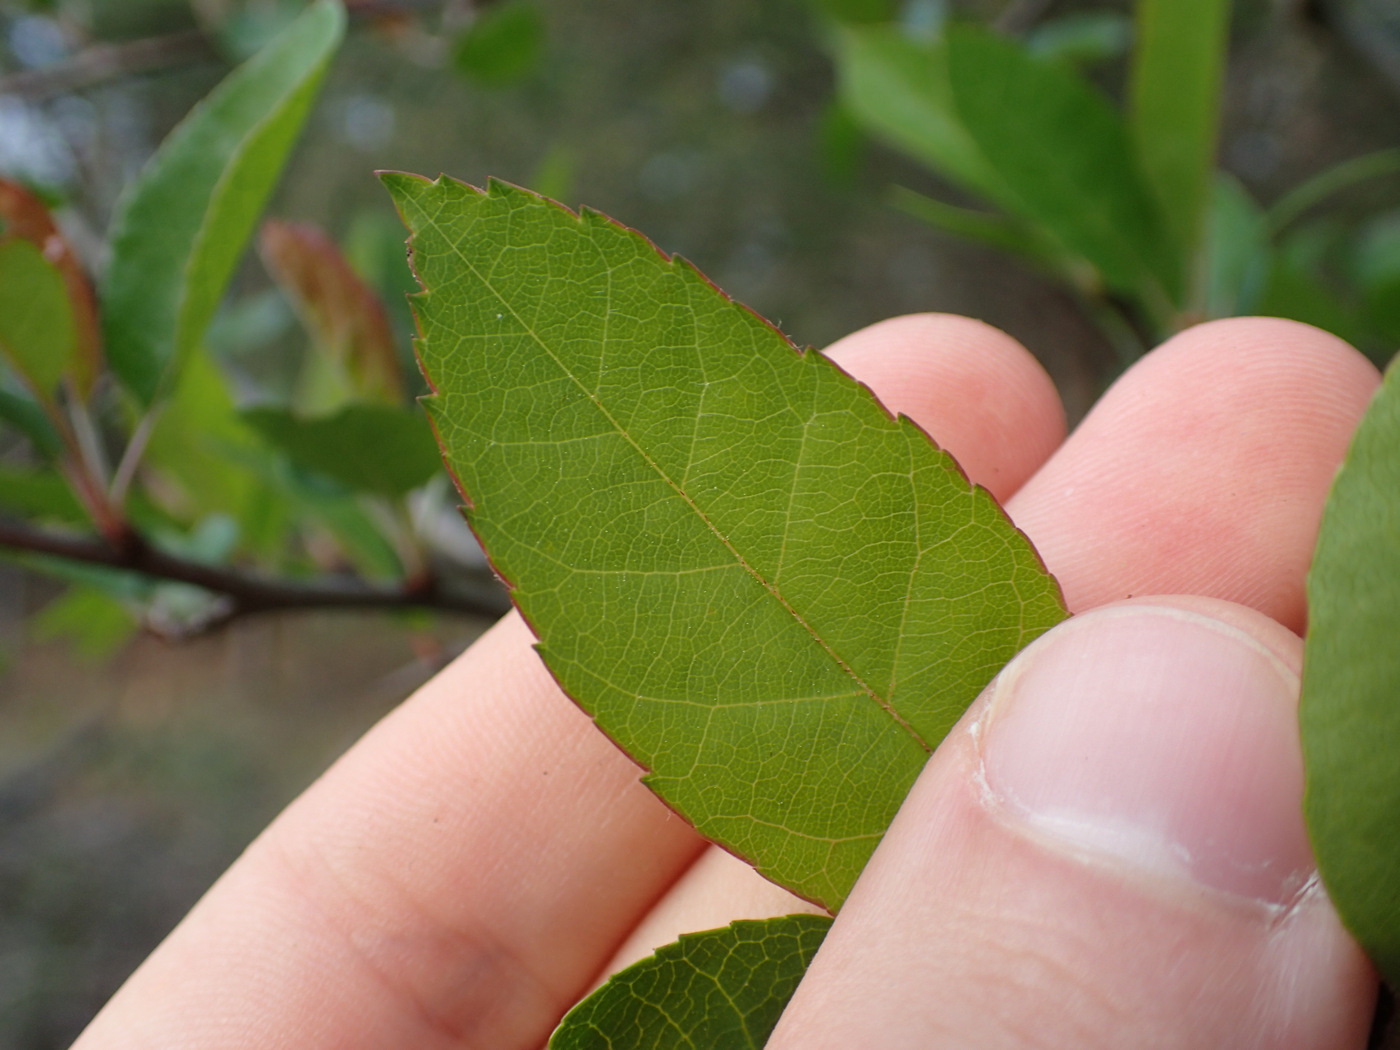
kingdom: Plantae
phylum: Tracheophyta
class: Magnoliopsida
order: Rosales
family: Rosaceae
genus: Malus
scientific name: Malus coronaria
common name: Sweet crab apple
